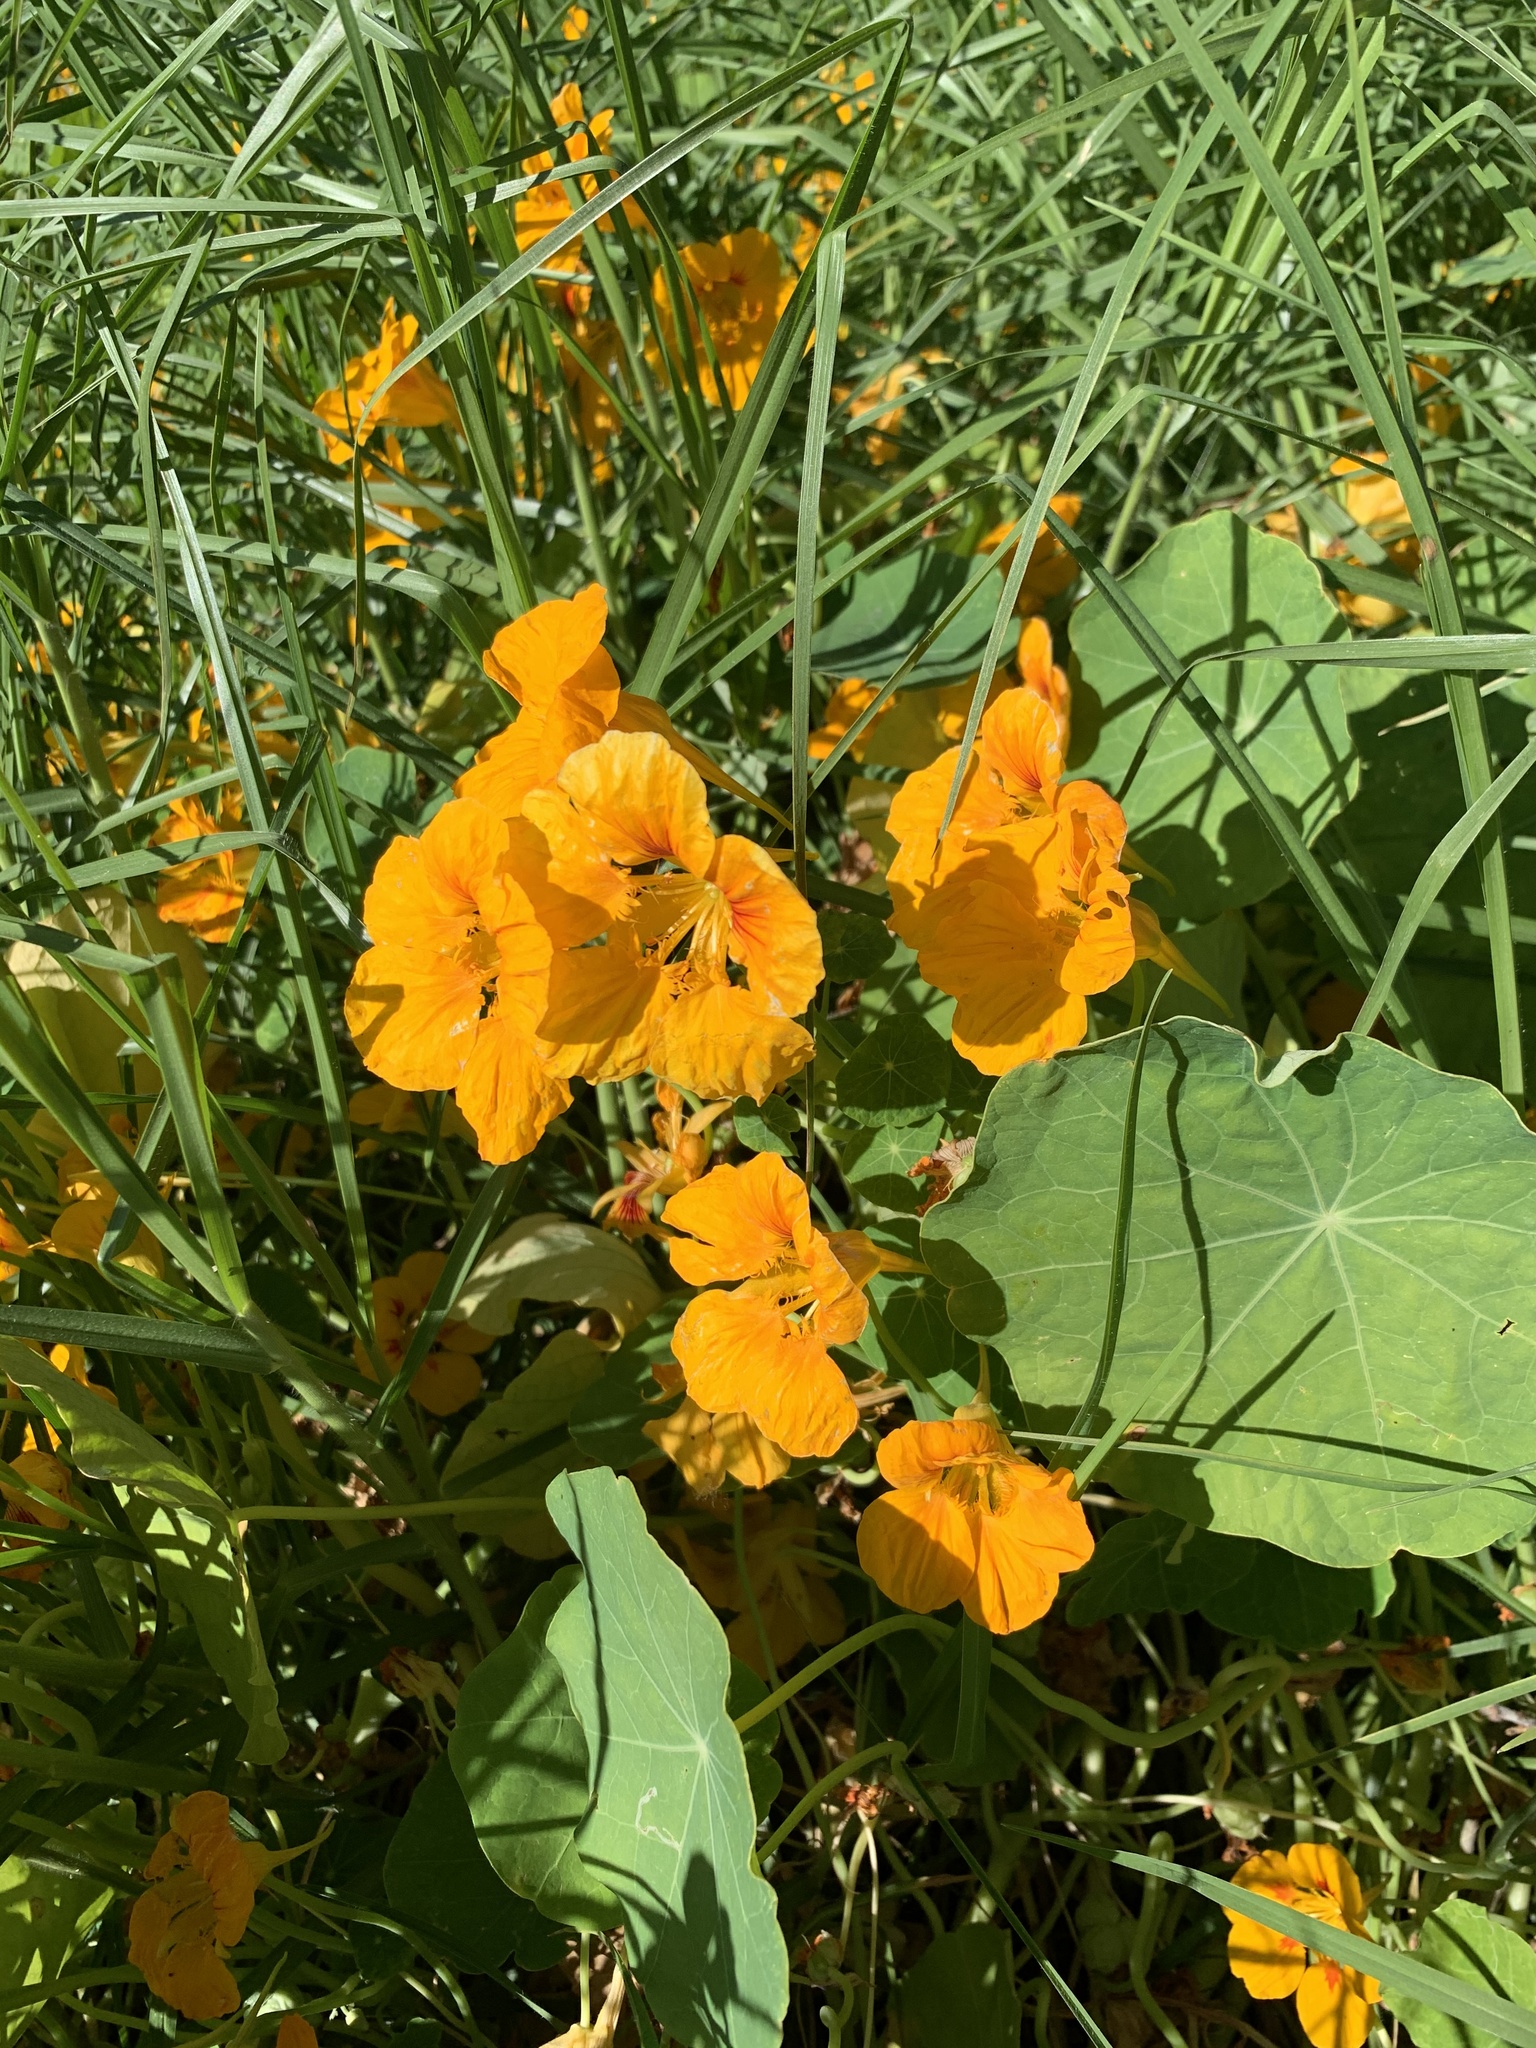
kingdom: Plantae
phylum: Tracheophyta
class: Magnoliopsida
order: Brassicales
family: Tropaeolaceae
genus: Tropaeolum
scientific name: Tropaeolum majus
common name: Nasturtium
